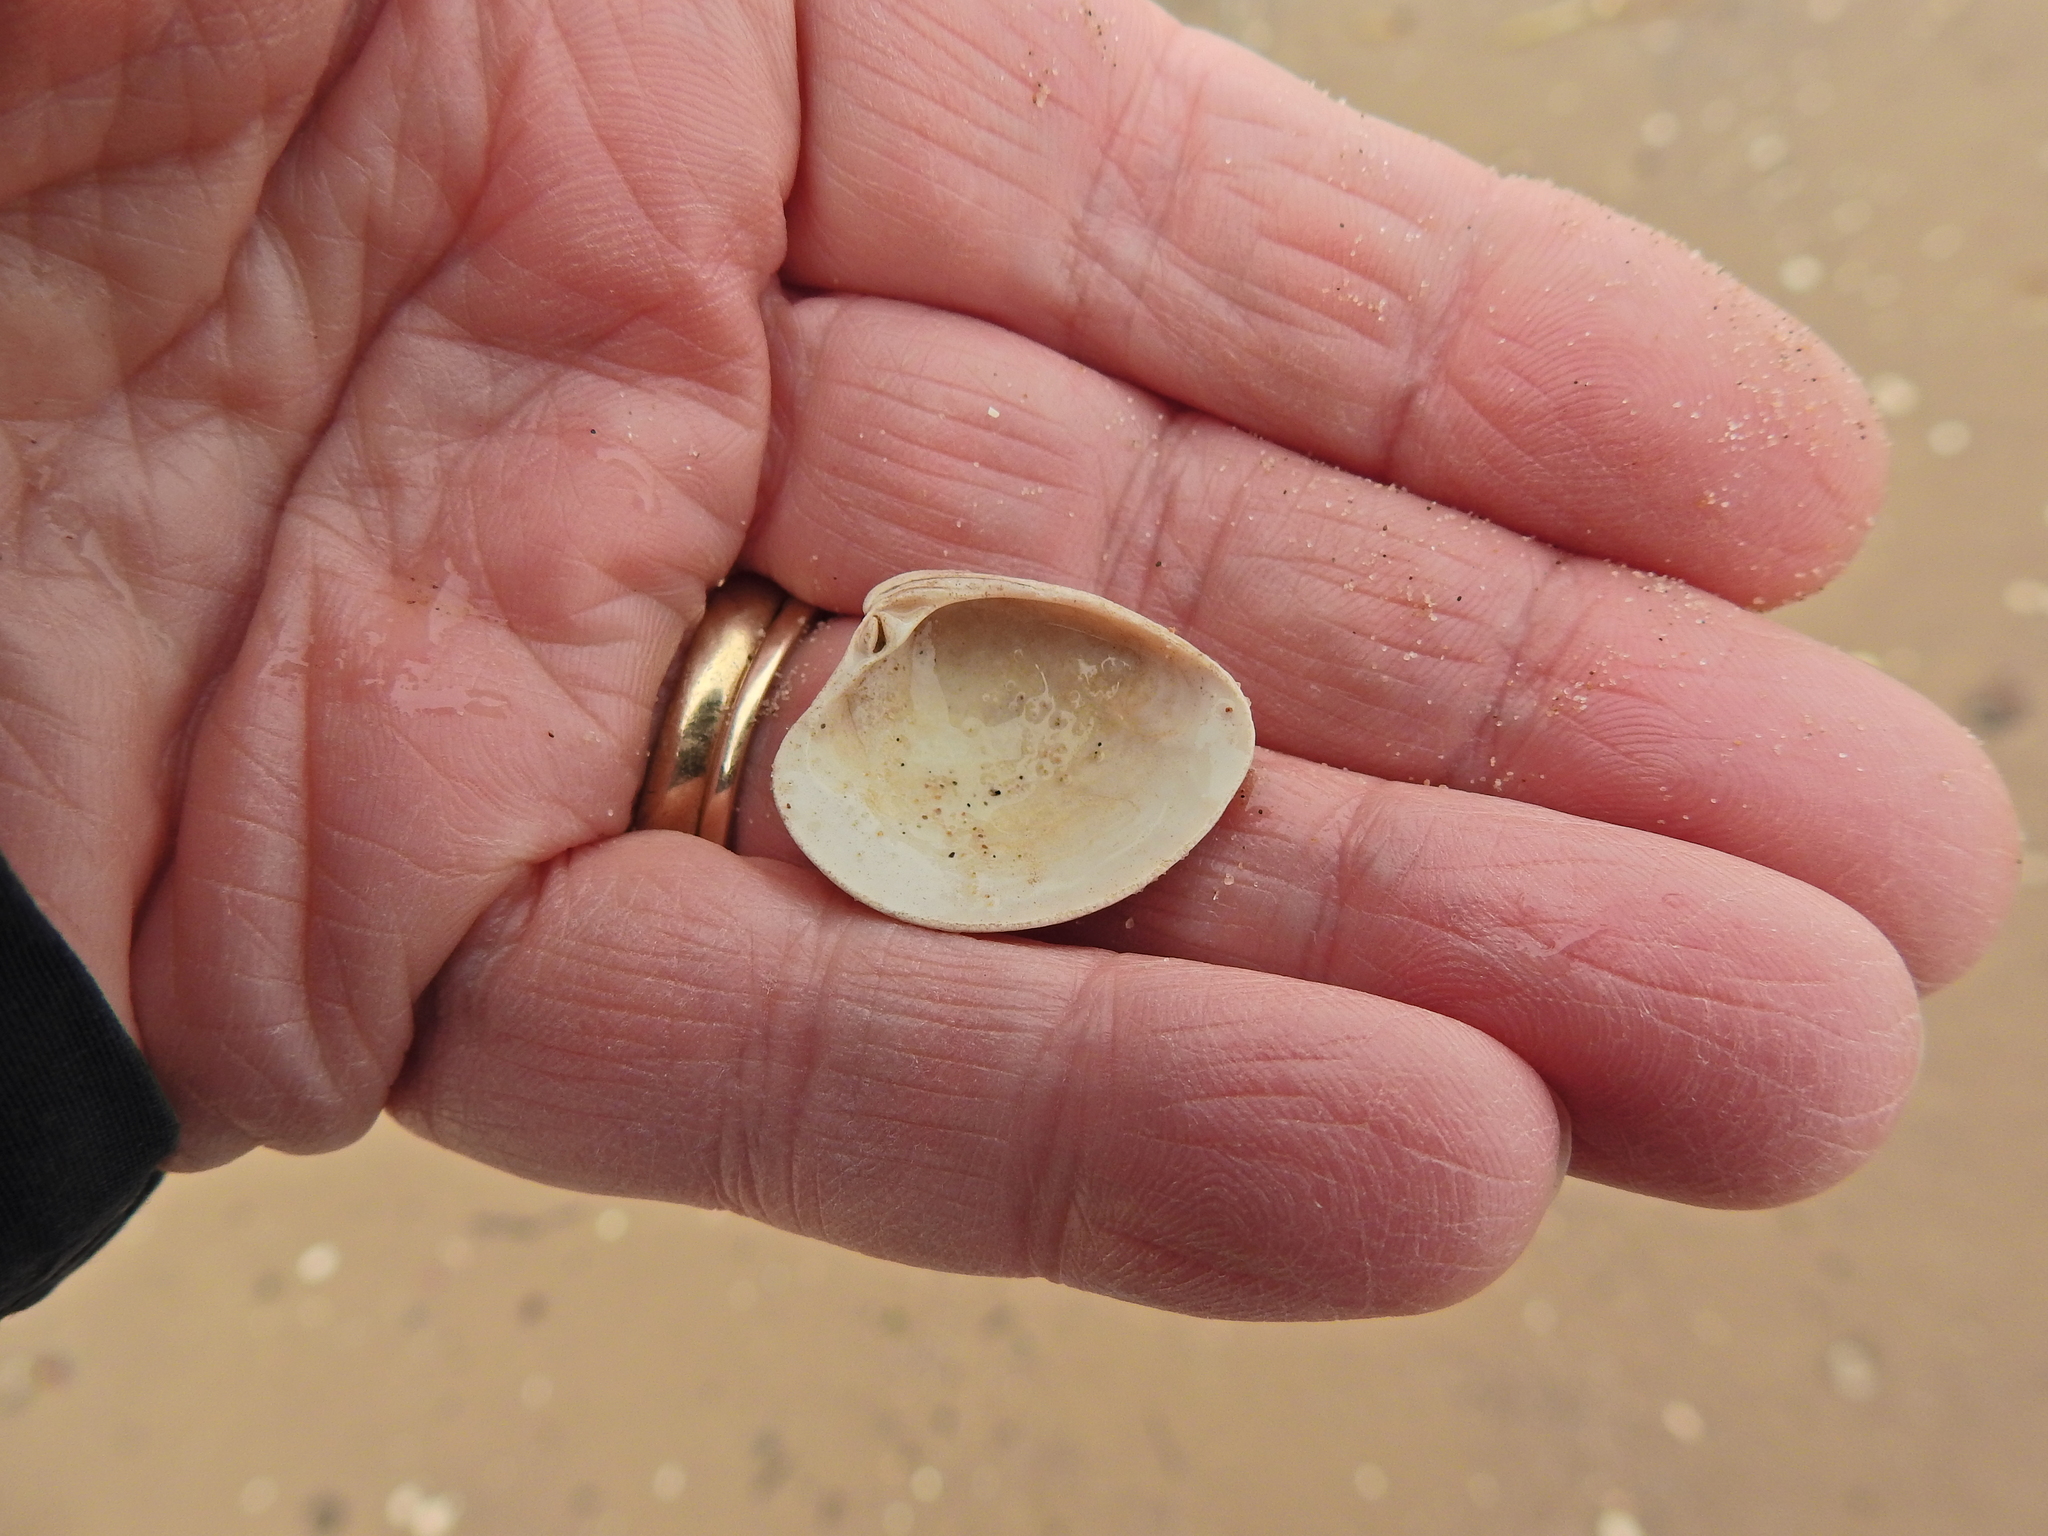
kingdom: Animalia
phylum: Mollusca
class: Bivalvia
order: Venerida
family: Veneridae
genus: Chamelea
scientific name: Chamelea striatula
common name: Striped venus
